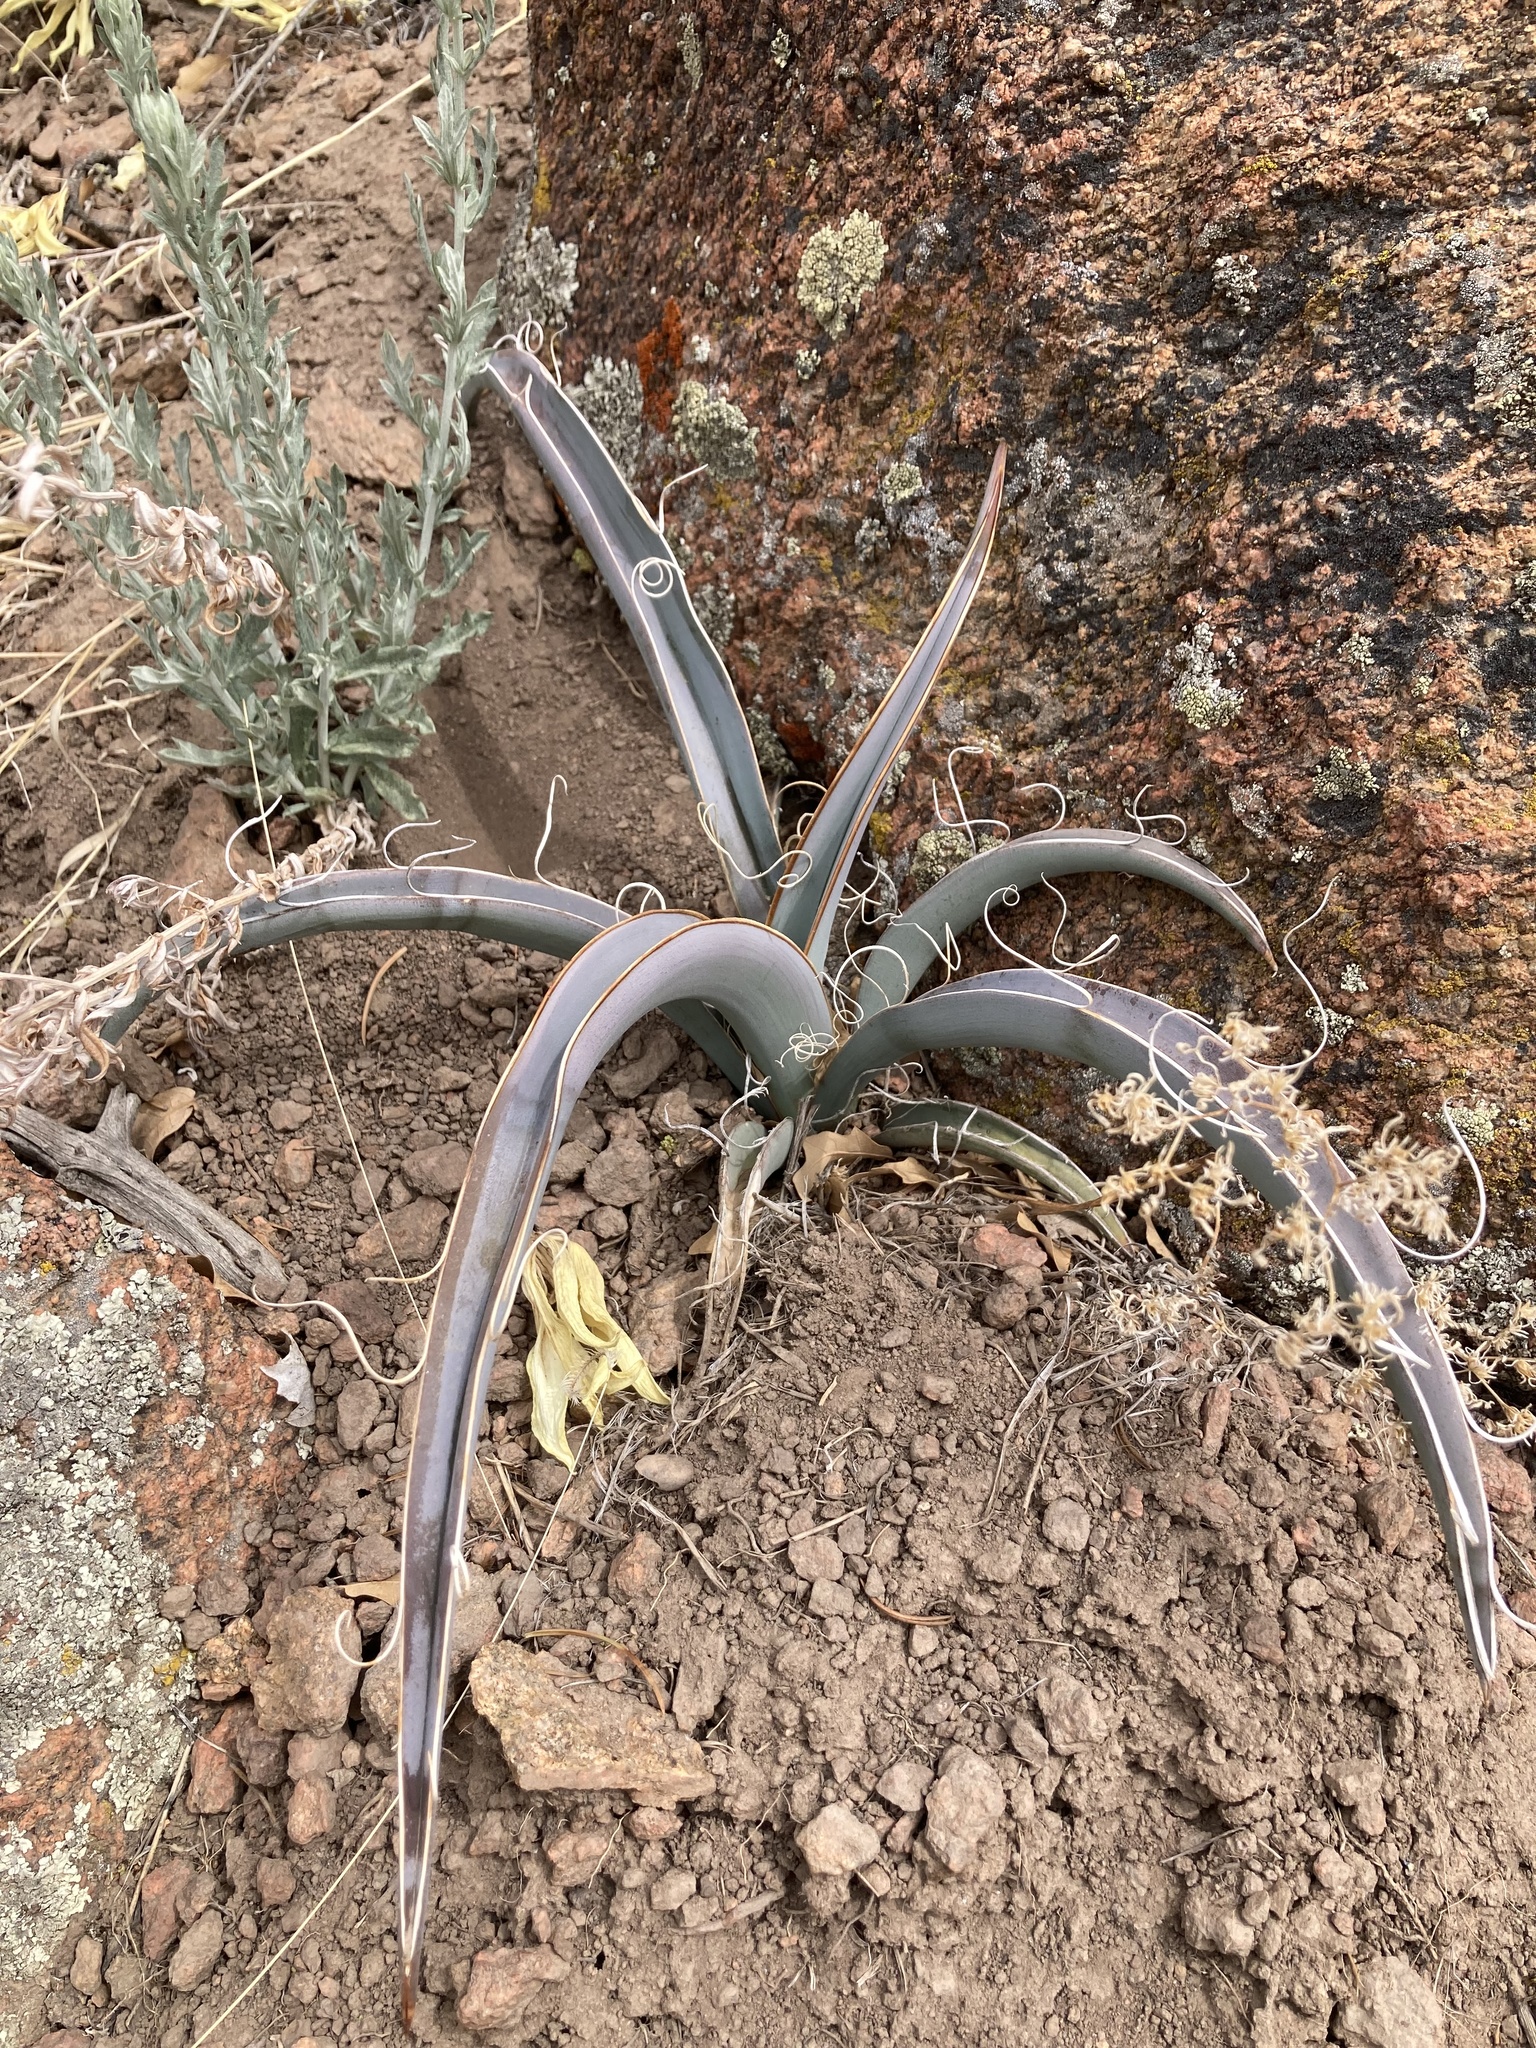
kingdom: Plantae
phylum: Tracheophyta
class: Liliopsida
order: Asparagales
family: Asparagaceae
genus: Yucca
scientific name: Yucca baccata
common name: Banana yucca
